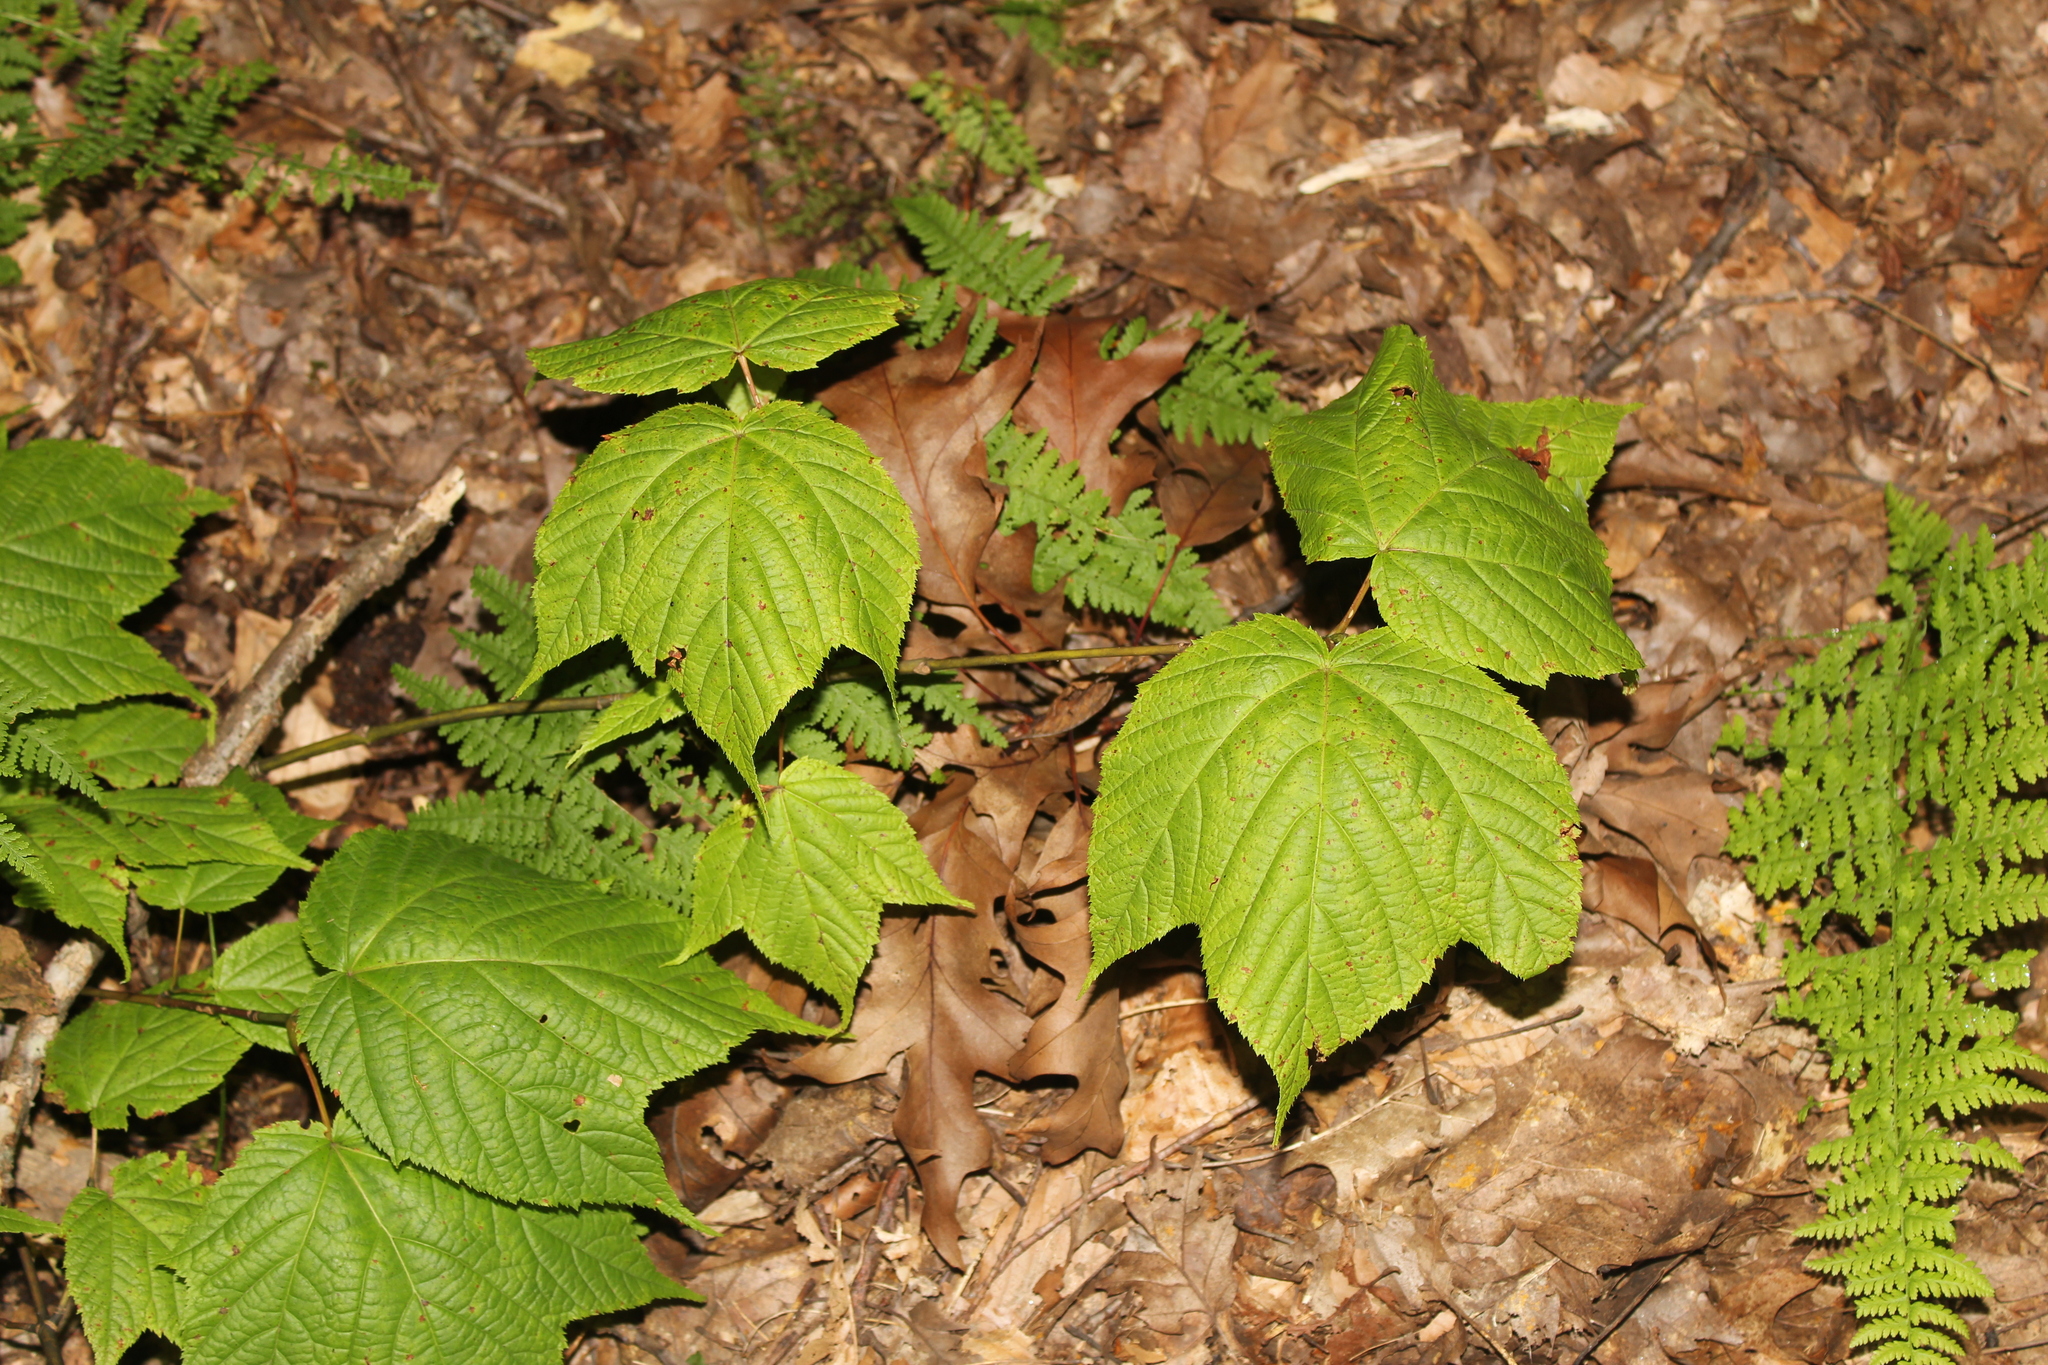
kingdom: Plantae
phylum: Tracheophyta
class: Magnoliopsida
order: Sapindales
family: Sapindaceae
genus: Acer
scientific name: Acer pensylvanicum
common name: Moosewood
